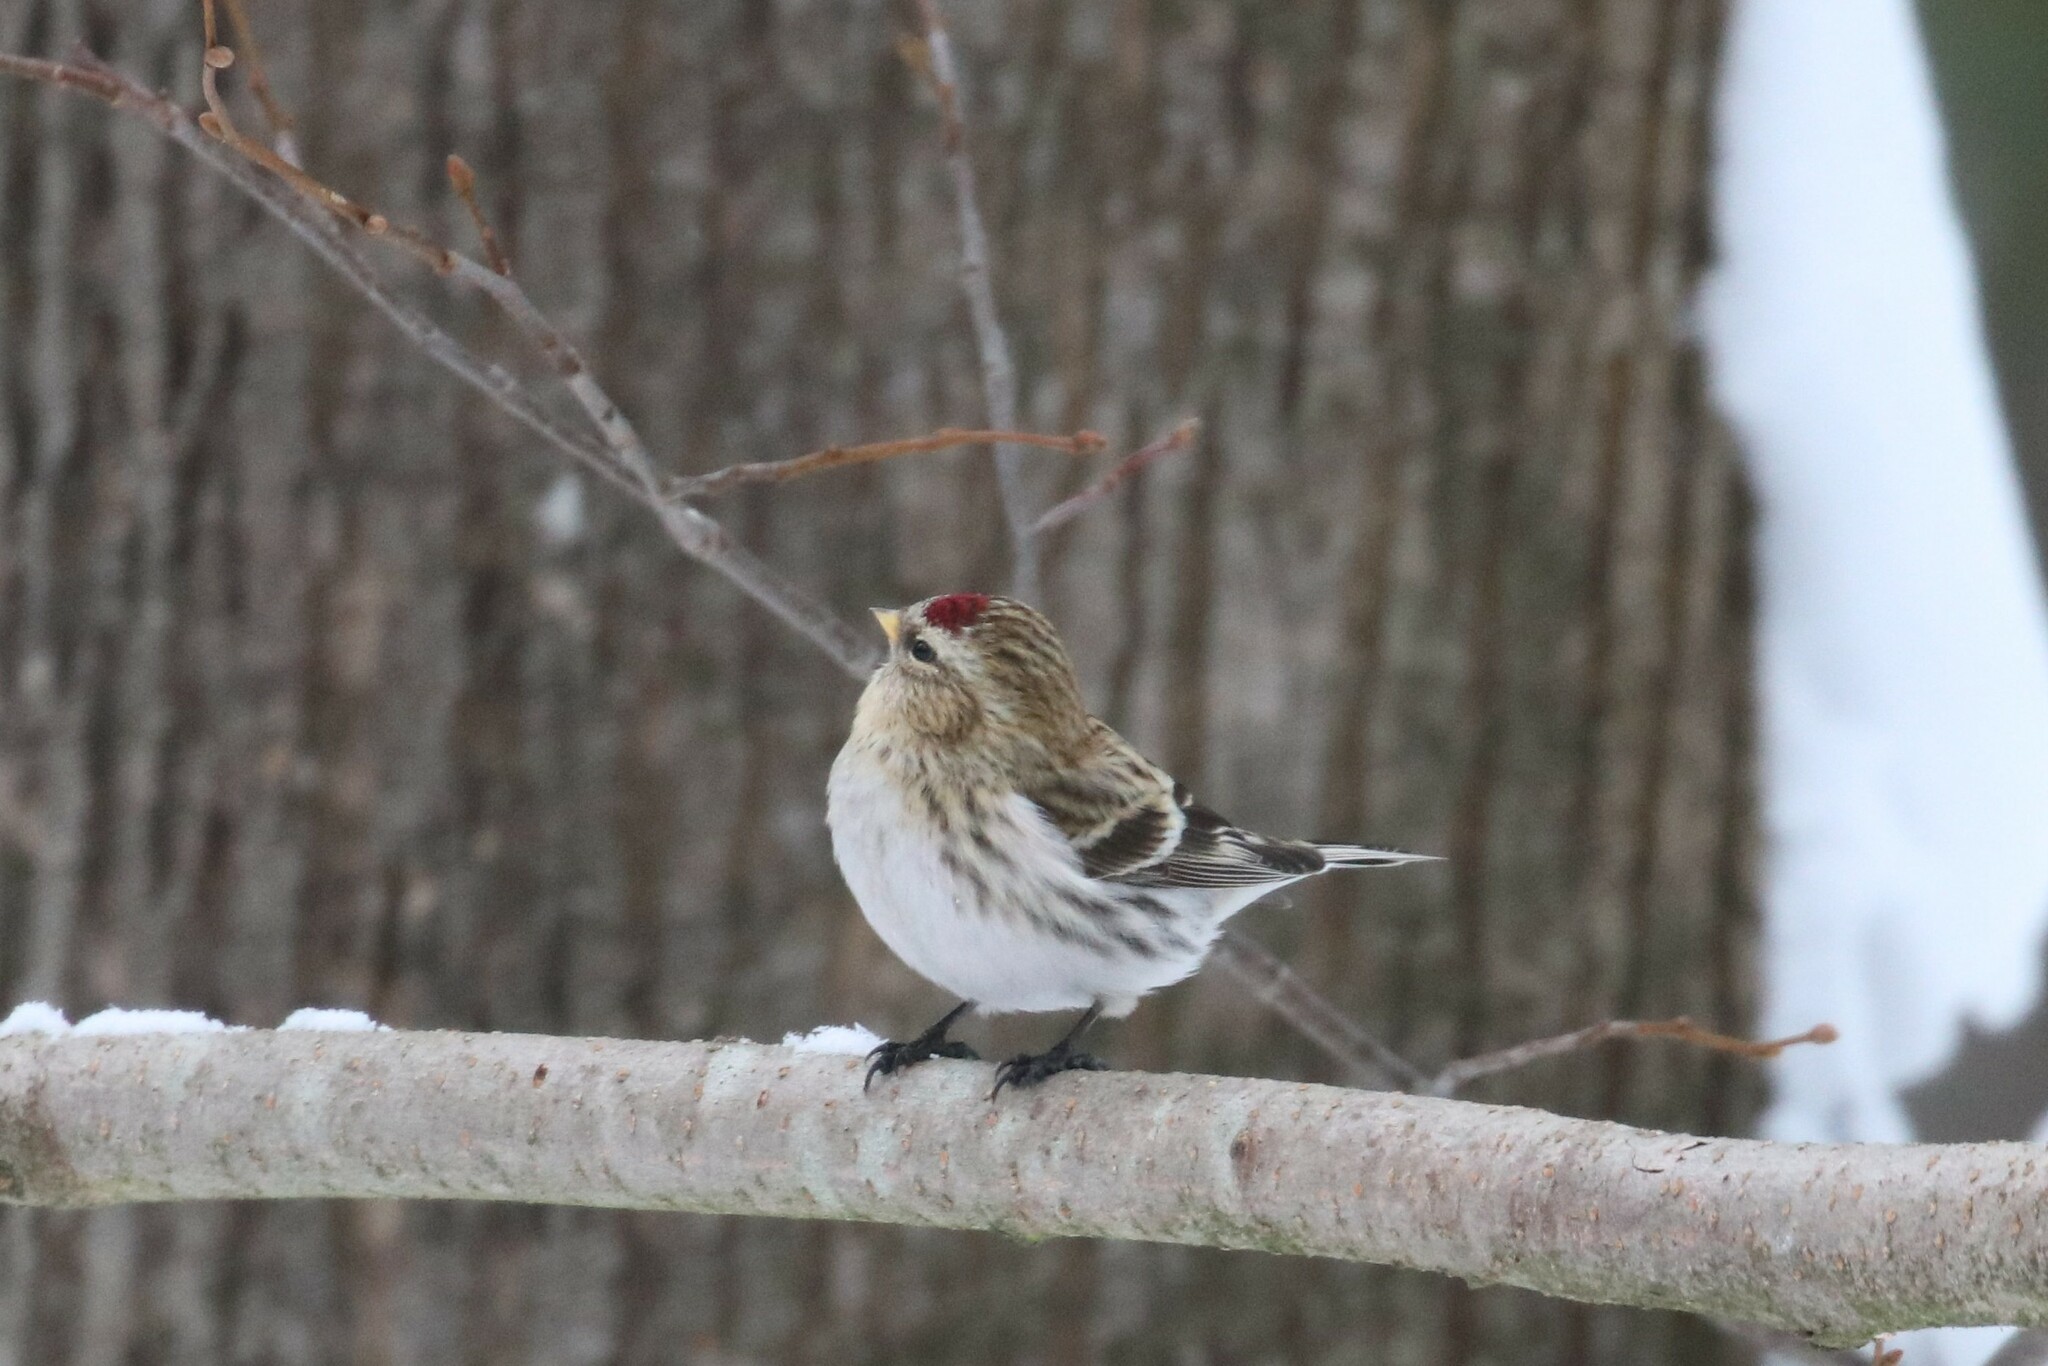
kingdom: Animalia
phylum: Chordata
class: Aves
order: Passeriformes
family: Fringillidae
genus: Acanthis
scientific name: Acanthis flammea
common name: Common redpoll
